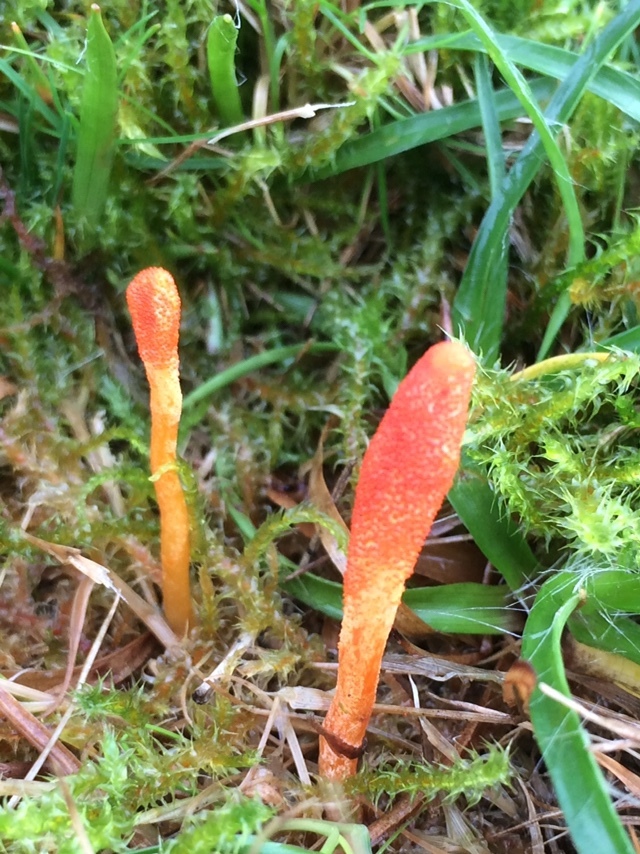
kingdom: Fungi
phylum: Ascomycota
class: Sordariomycetes
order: Hypocreales
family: Cordycipitaceae
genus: Cordyceps
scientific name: Cordyceps militaris
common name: Scarlet caterpillar fungus
